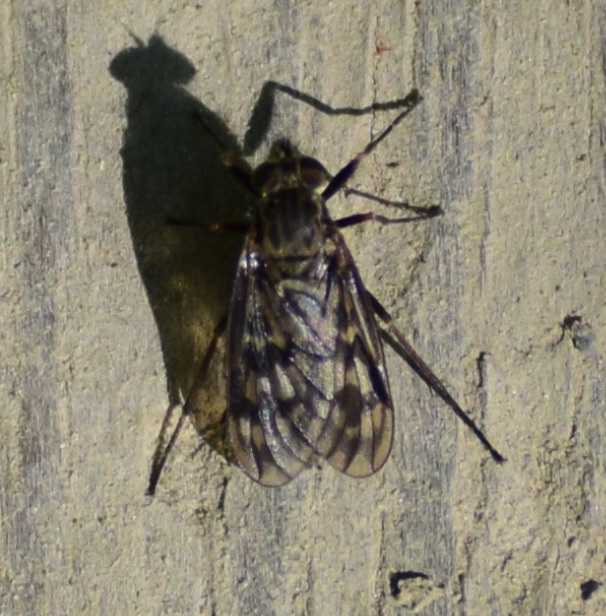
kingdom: Animalia
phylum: Arthropoda
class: Insecta
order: Diptera
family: Rhagionidae
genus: Rhagio
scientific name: Rhagio plumbeus
